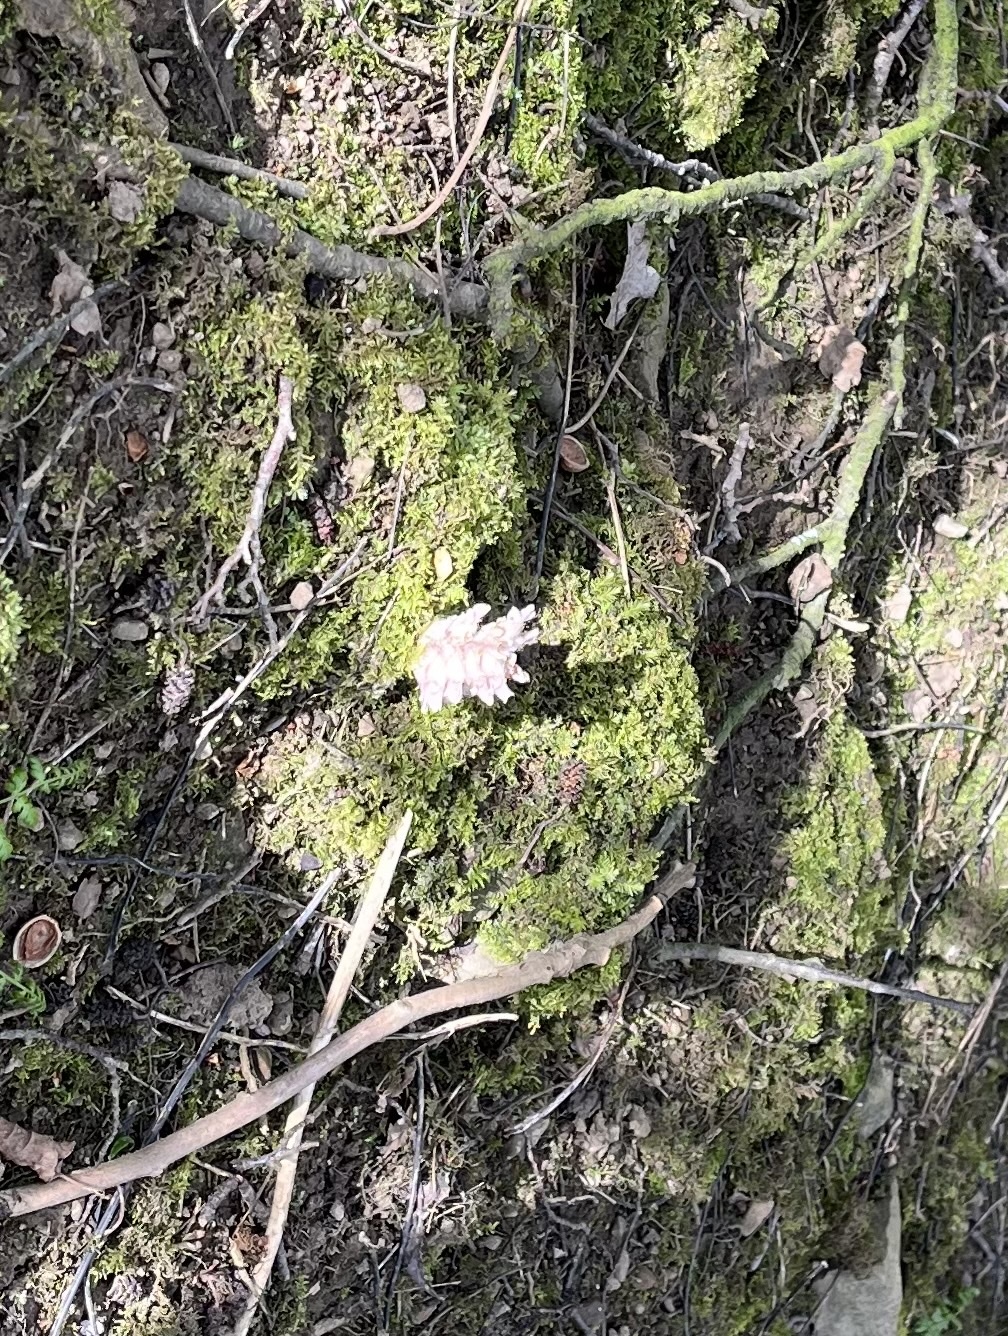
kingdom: Plantae
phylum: Tracheophyta
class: Magnoliopsida
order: Lamiales
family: Orobanchaceae
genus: Lathraea
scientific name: Lathraea squamaria
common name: Toothwort
